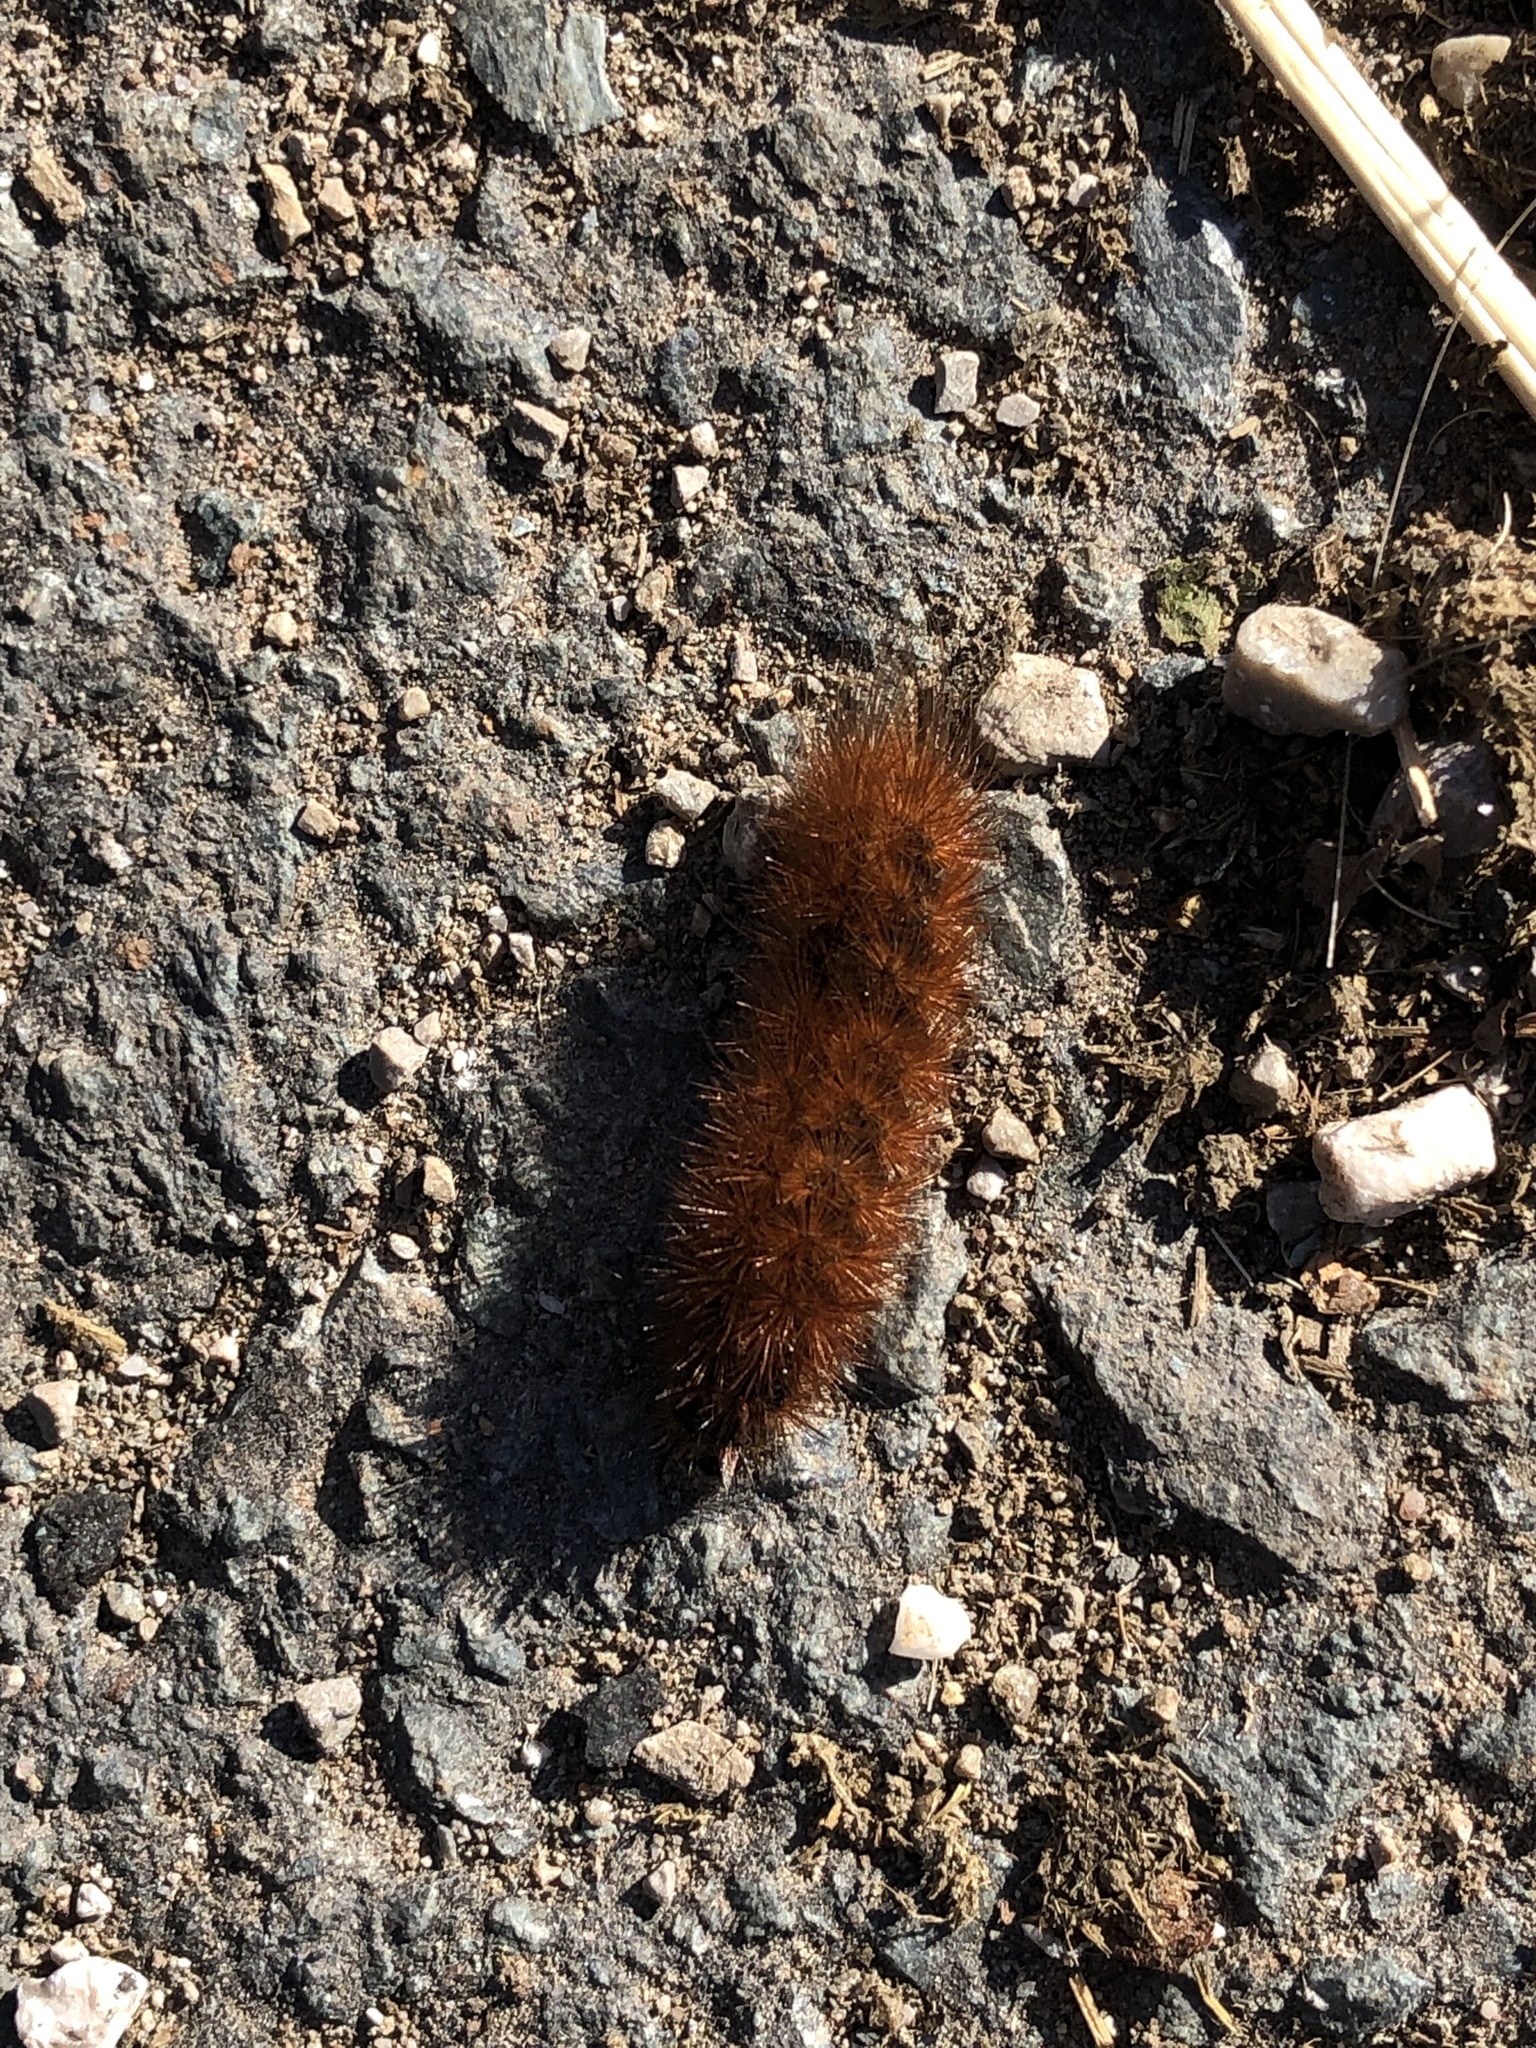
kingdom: Animalia
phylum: Arthropoda
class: Insecta
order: Lepidoptera
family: Erebidae
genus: Phragmatobia
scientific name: Phragmatobia fuliginosa
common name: Ruby tiger
